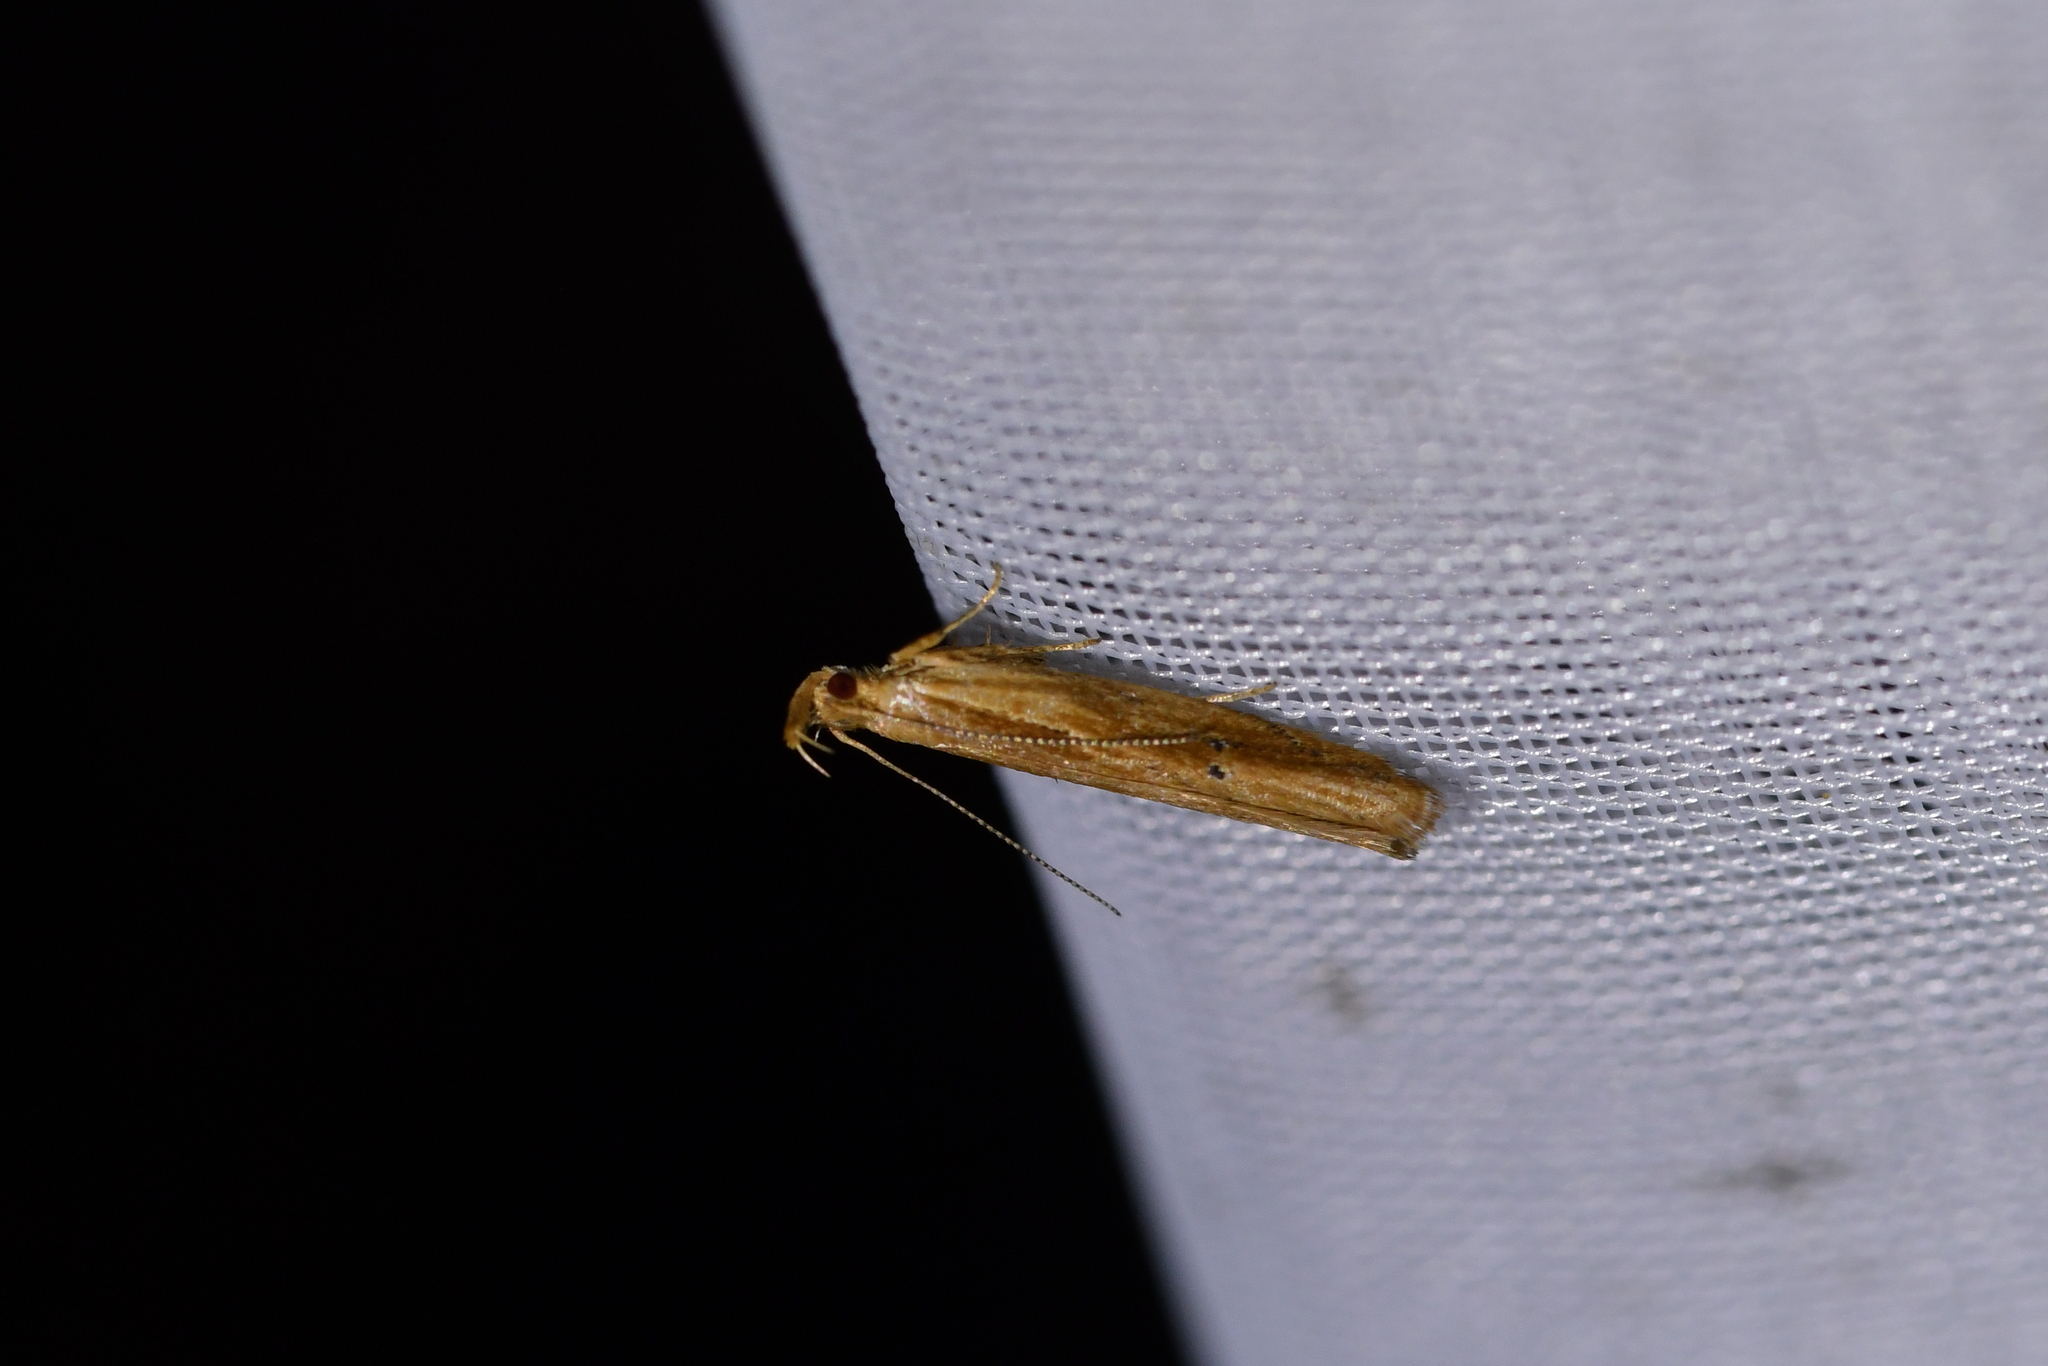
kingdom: Animalia
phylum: Arthropoda
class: Insecta
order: Lepidoptera
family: Depressariidae
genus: Eutorna
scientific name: Eutorna symmorpha
